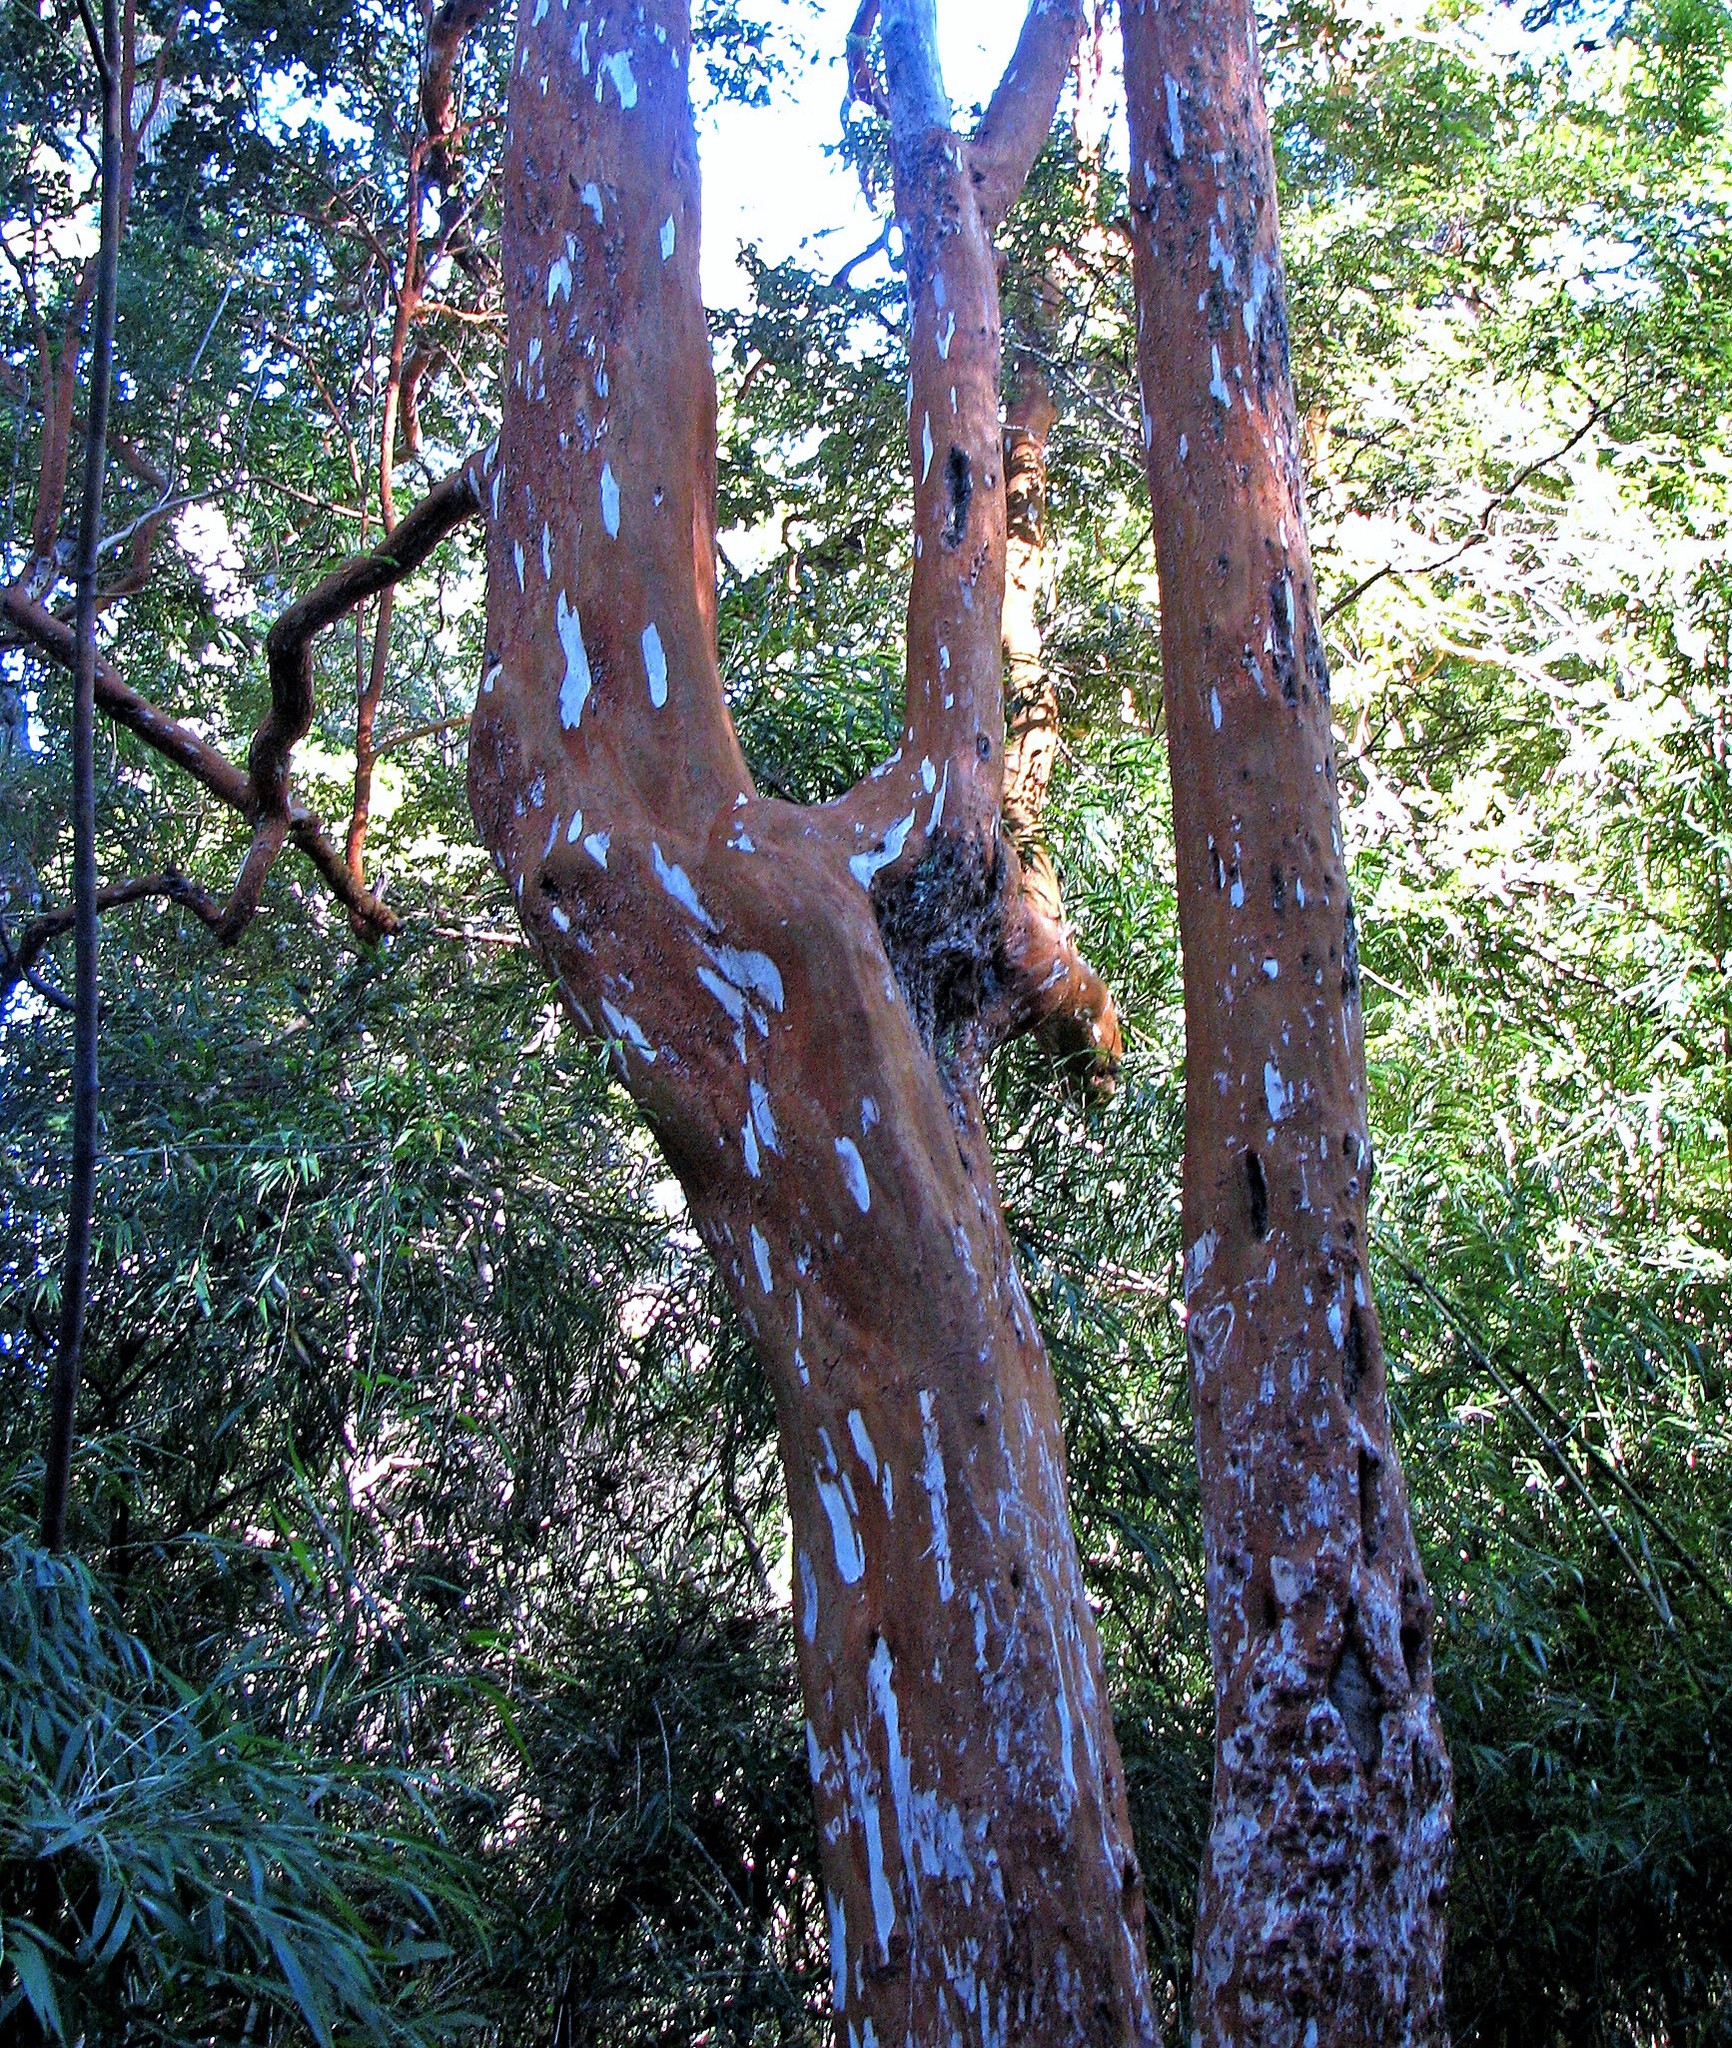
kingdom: Plantae
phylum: Tracheophyta
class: Magnoliopsida
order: Myrtales
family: Myrtaceae
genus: Luma
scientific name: Luma apiculata
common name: Chilean myrtle
